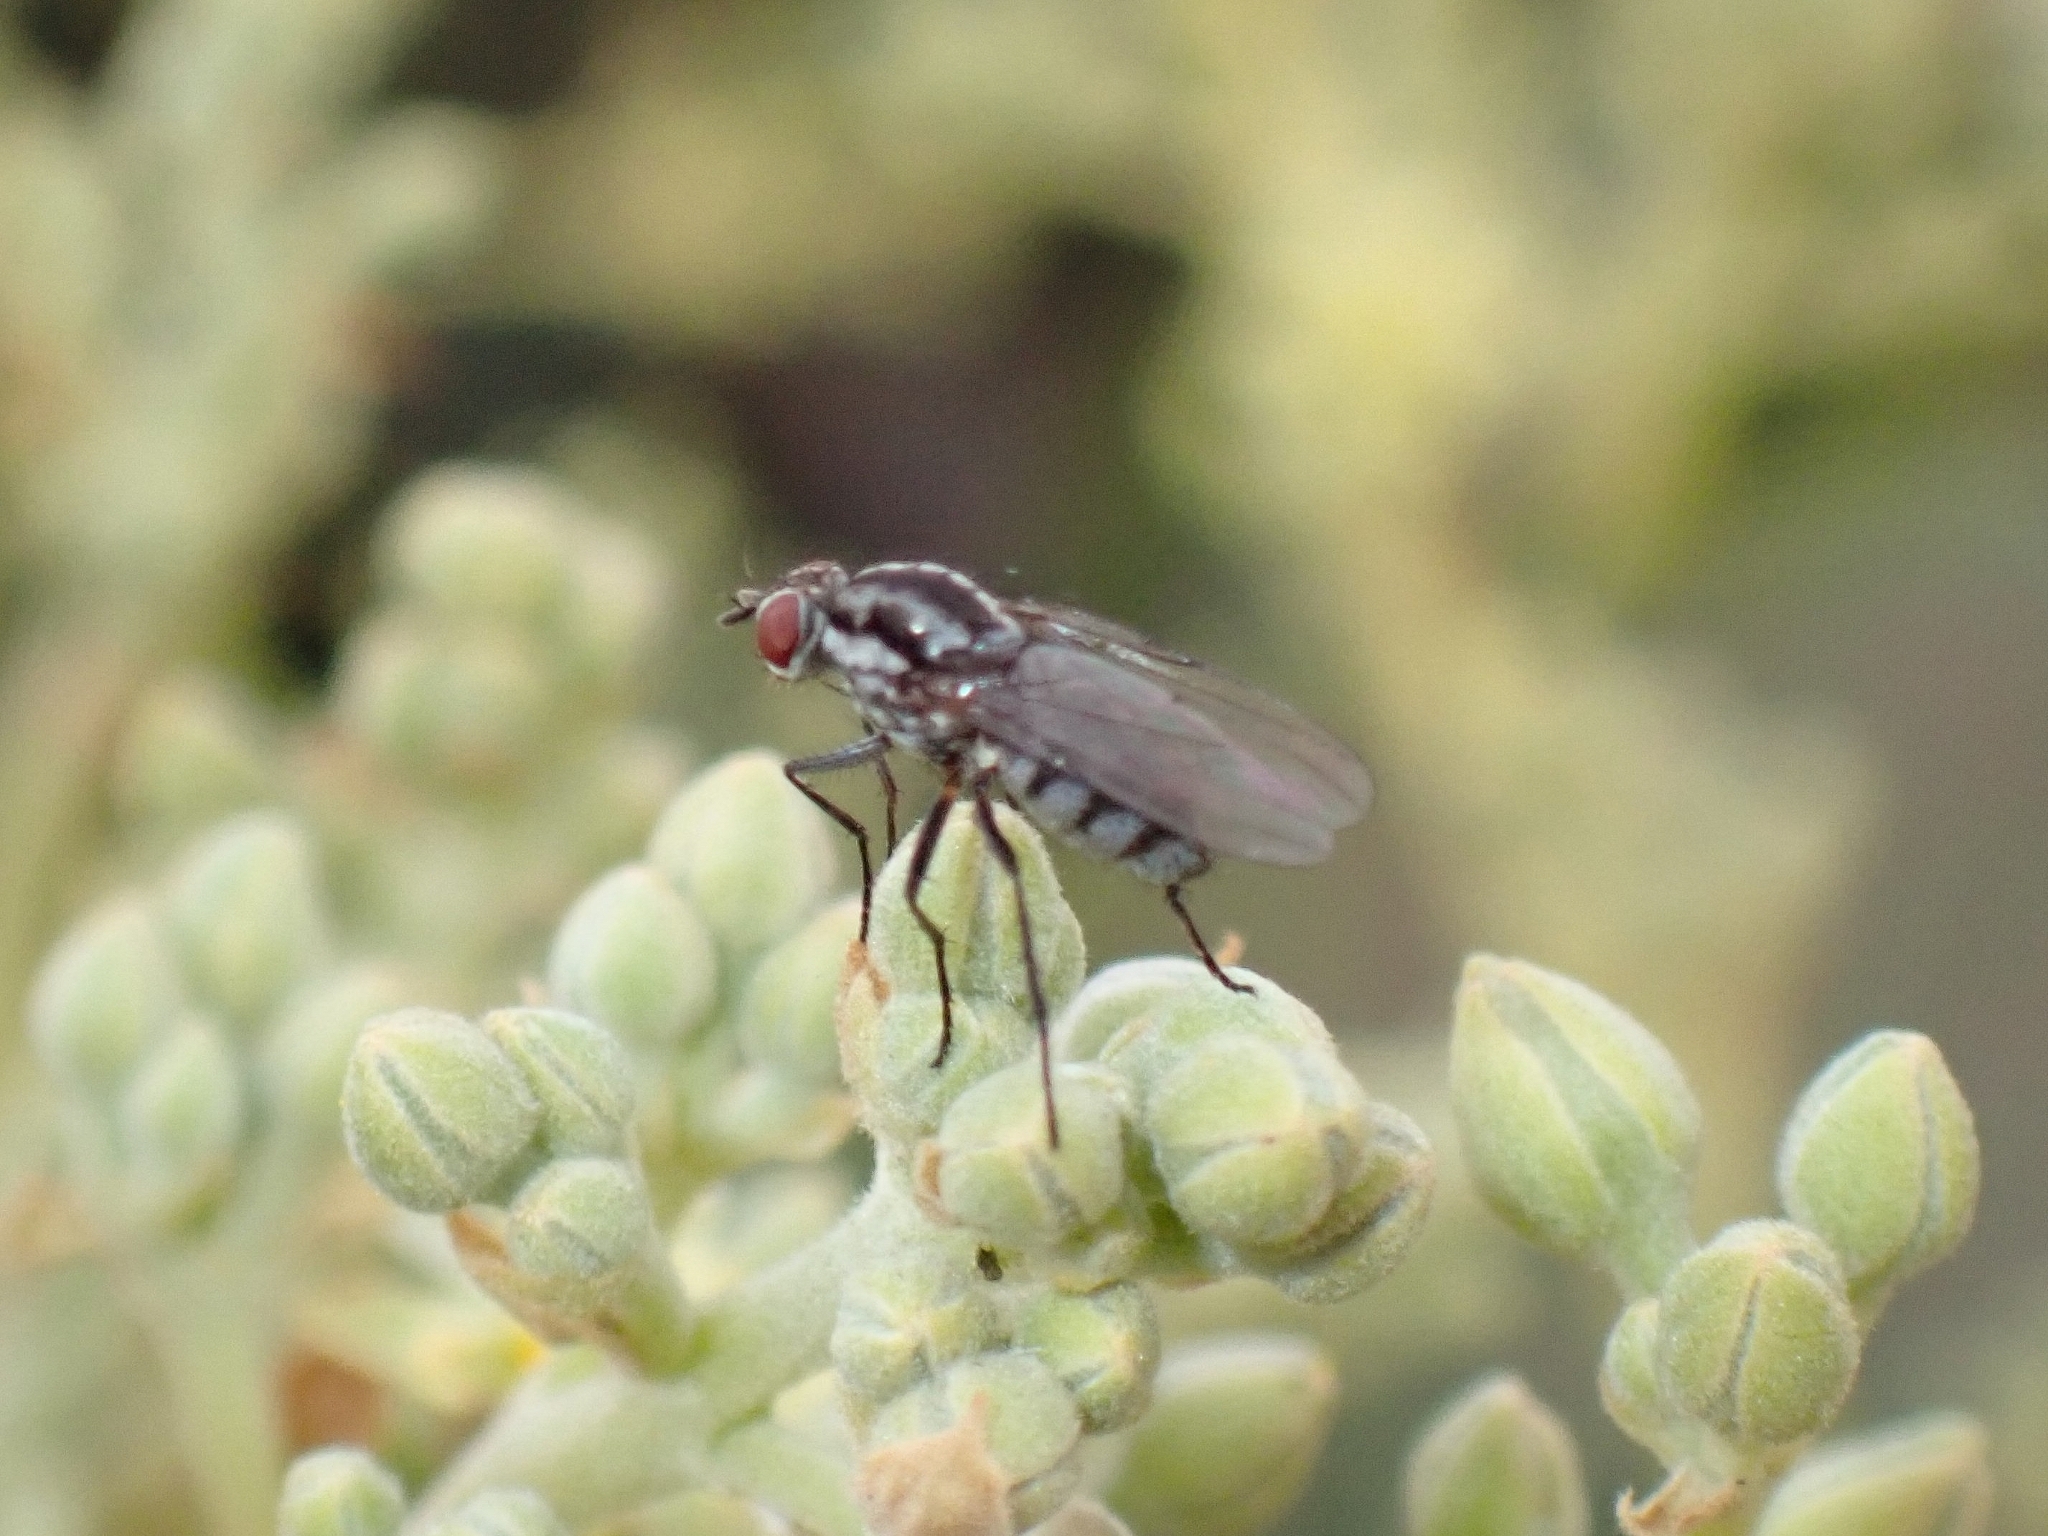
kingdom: Animalia
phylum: Arthropoda
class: Insecta
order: Diptera
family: Anthomyiidae
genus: Hylemya
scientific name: Hylemya latevittata
